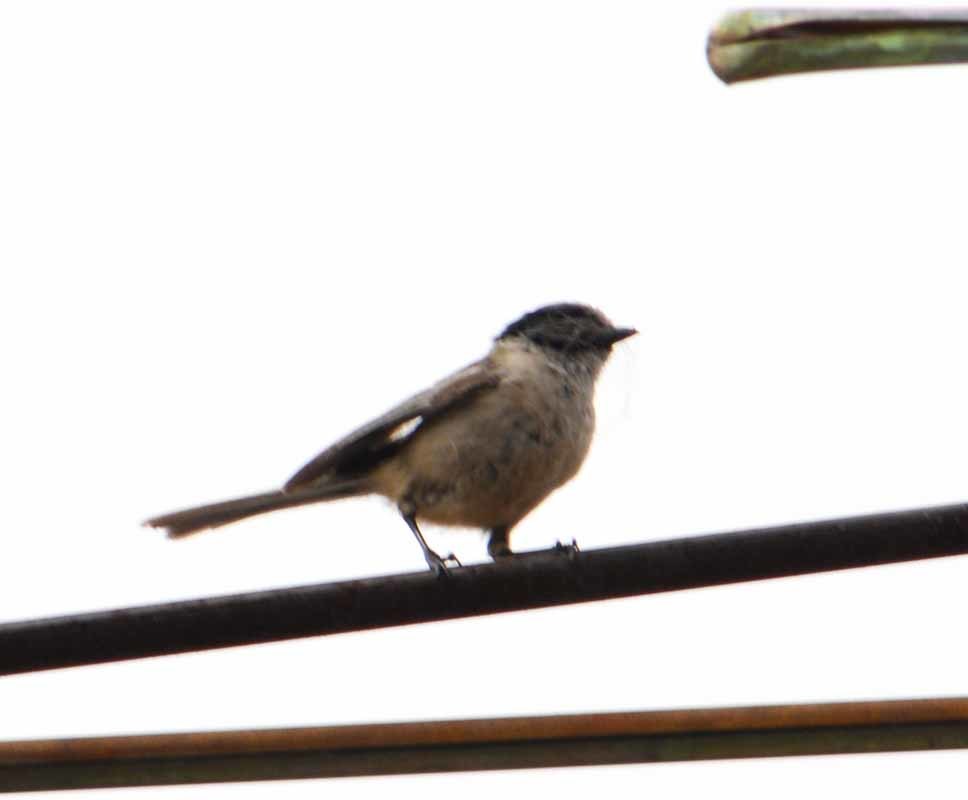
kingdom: Animalia
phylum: Chordata
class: Aves
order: Passeriformes
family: Aegithalidae
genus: Psaltriparus
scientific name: Psaltriparus minimus
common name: American bushtit
